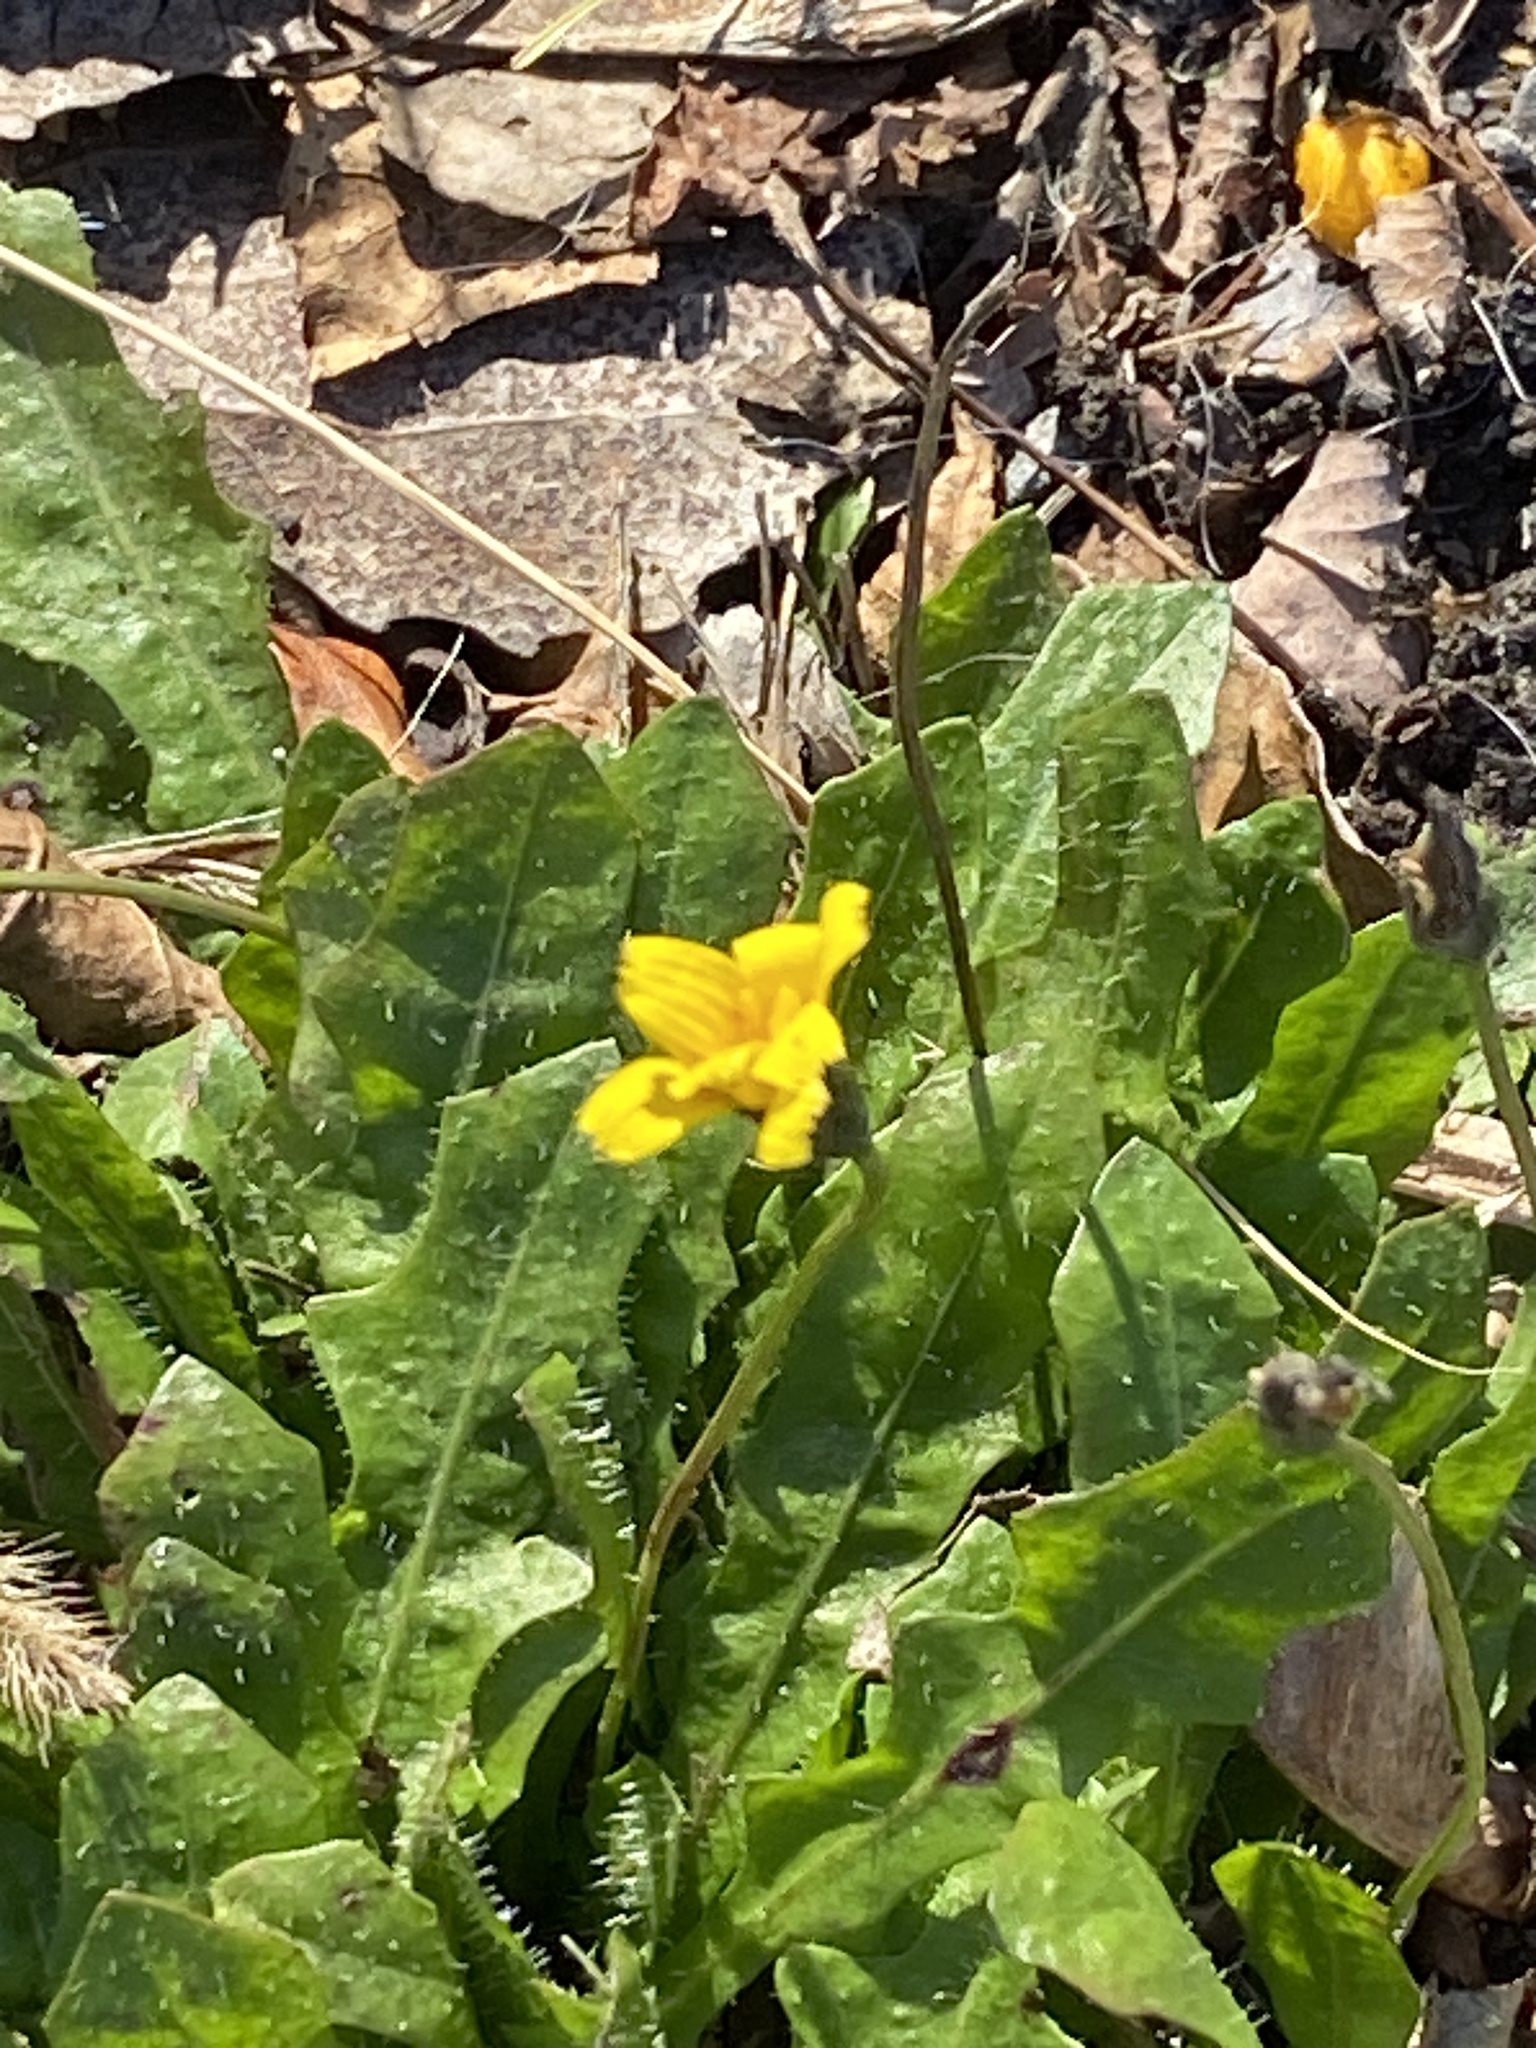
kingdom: Plantae
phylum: Tracheophyta
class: Magnoliopsida
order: Asterales
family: Asteraceae
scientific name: Asteraceae
